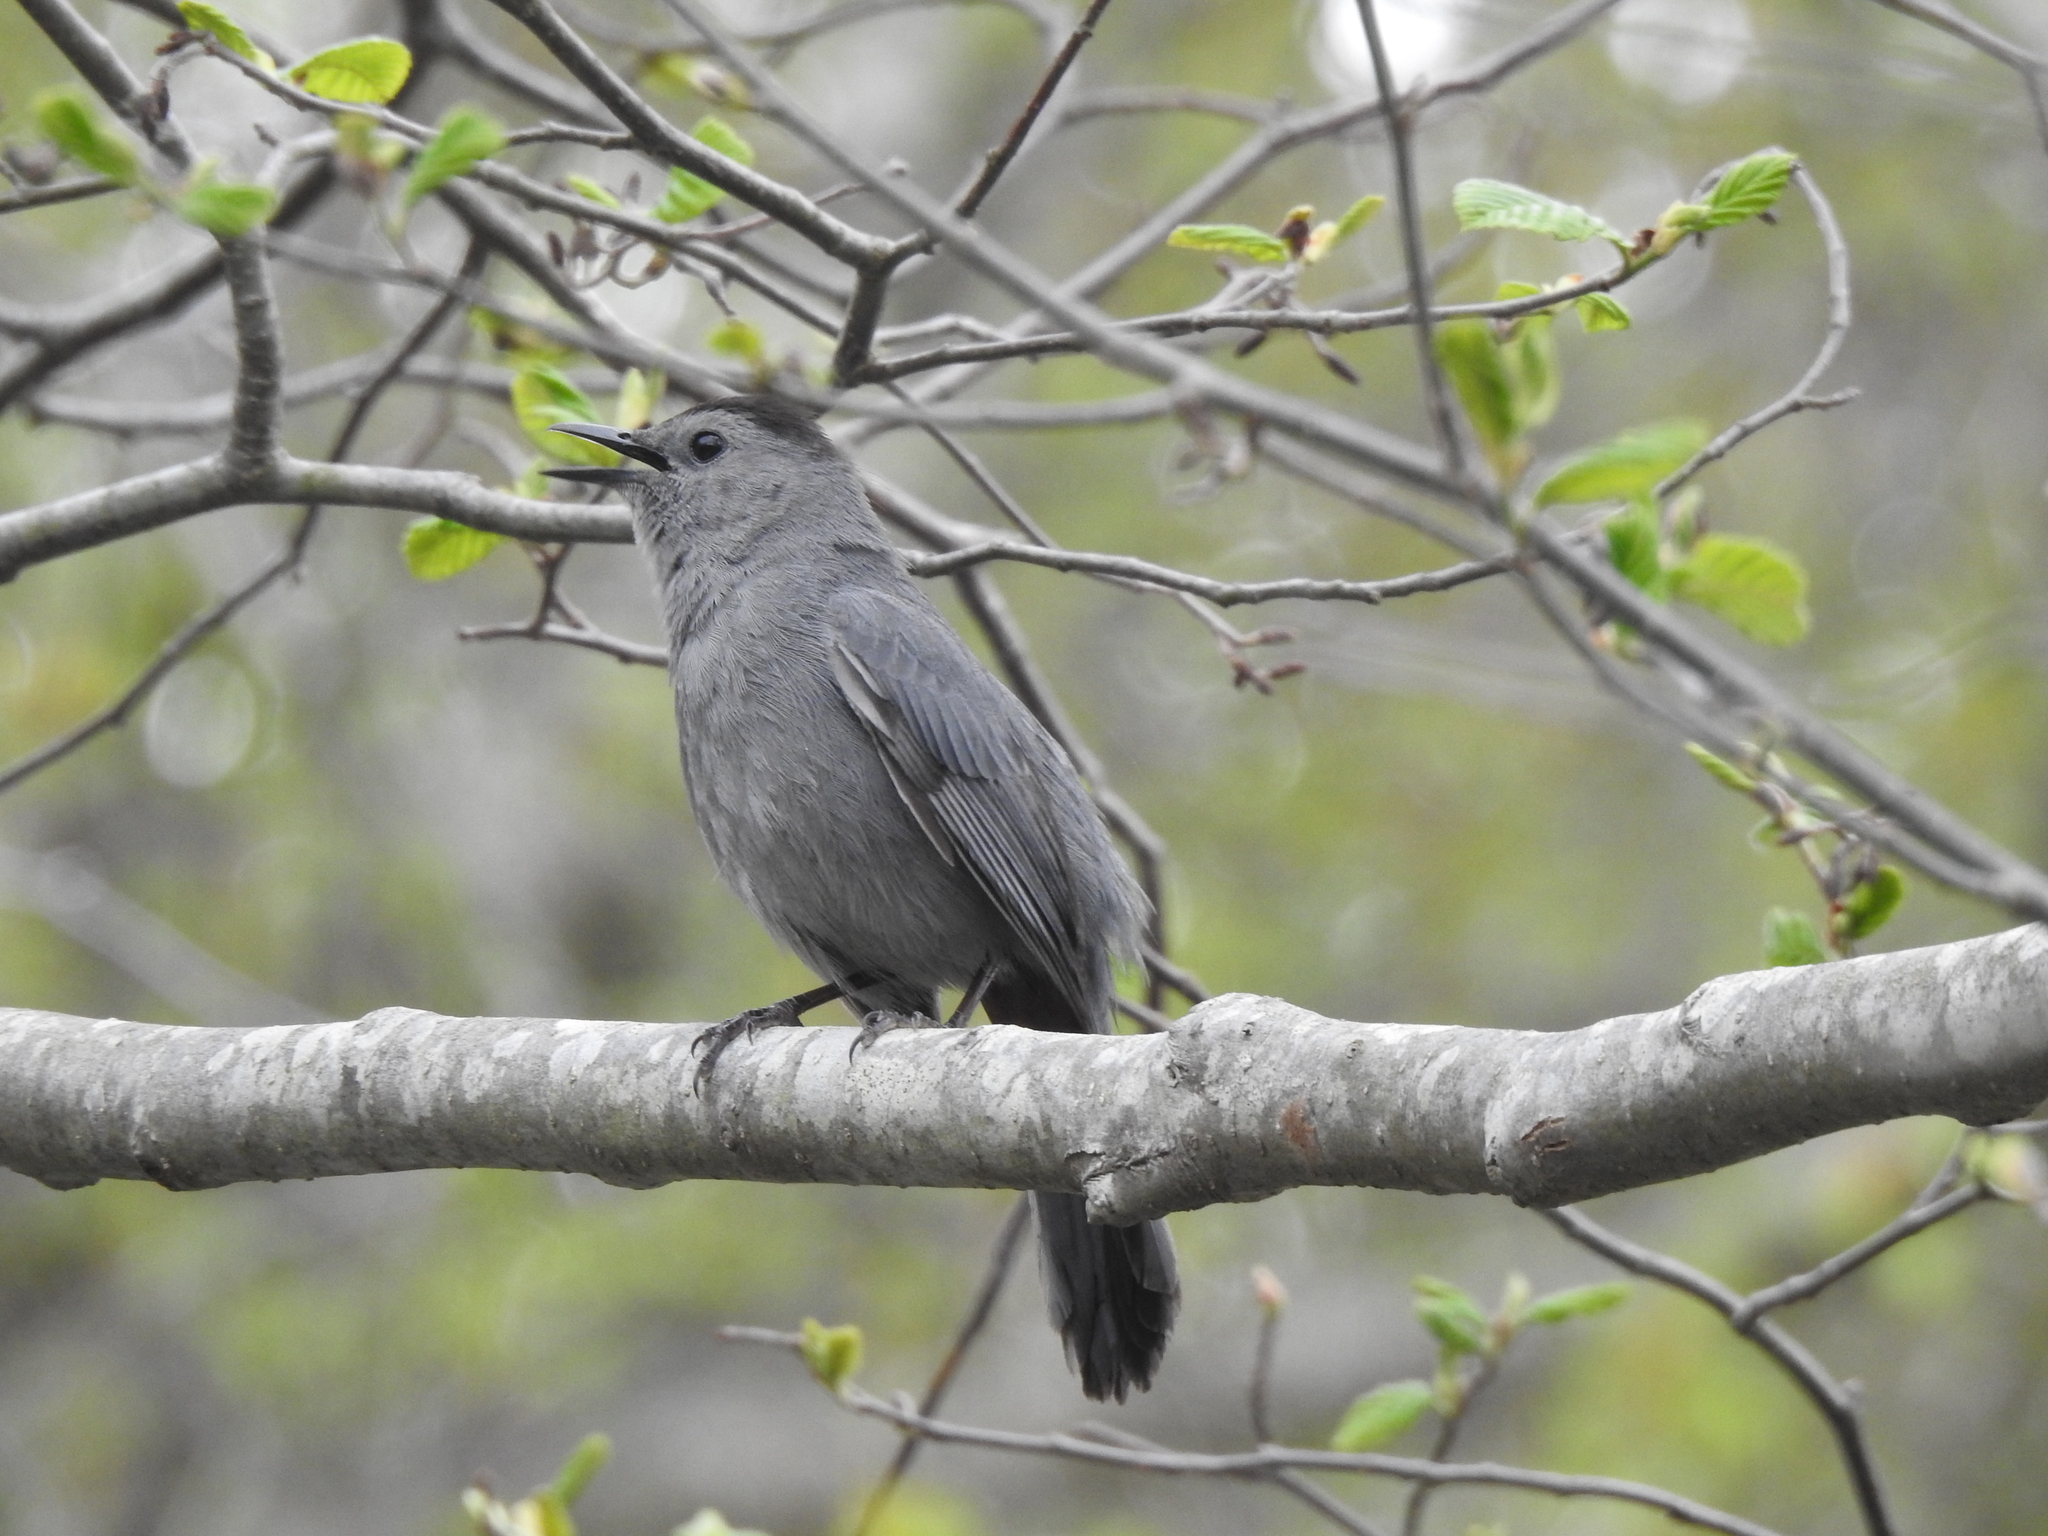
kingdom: Animalia
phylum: Chordata
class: Aves
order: Passeriformes
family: Mimidae
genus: Dumetella
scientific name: Dumetella carolinensis
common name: Gray catbird
